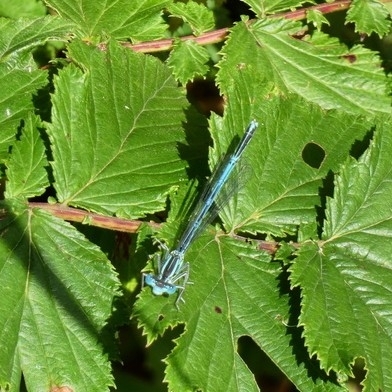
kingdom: Animalia
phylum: Arthropoda
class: Insecta
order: Odonata
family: Platycnemididae
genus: Platycnemis
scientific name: Platycnemis pennipes
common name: White-legged damselfly
